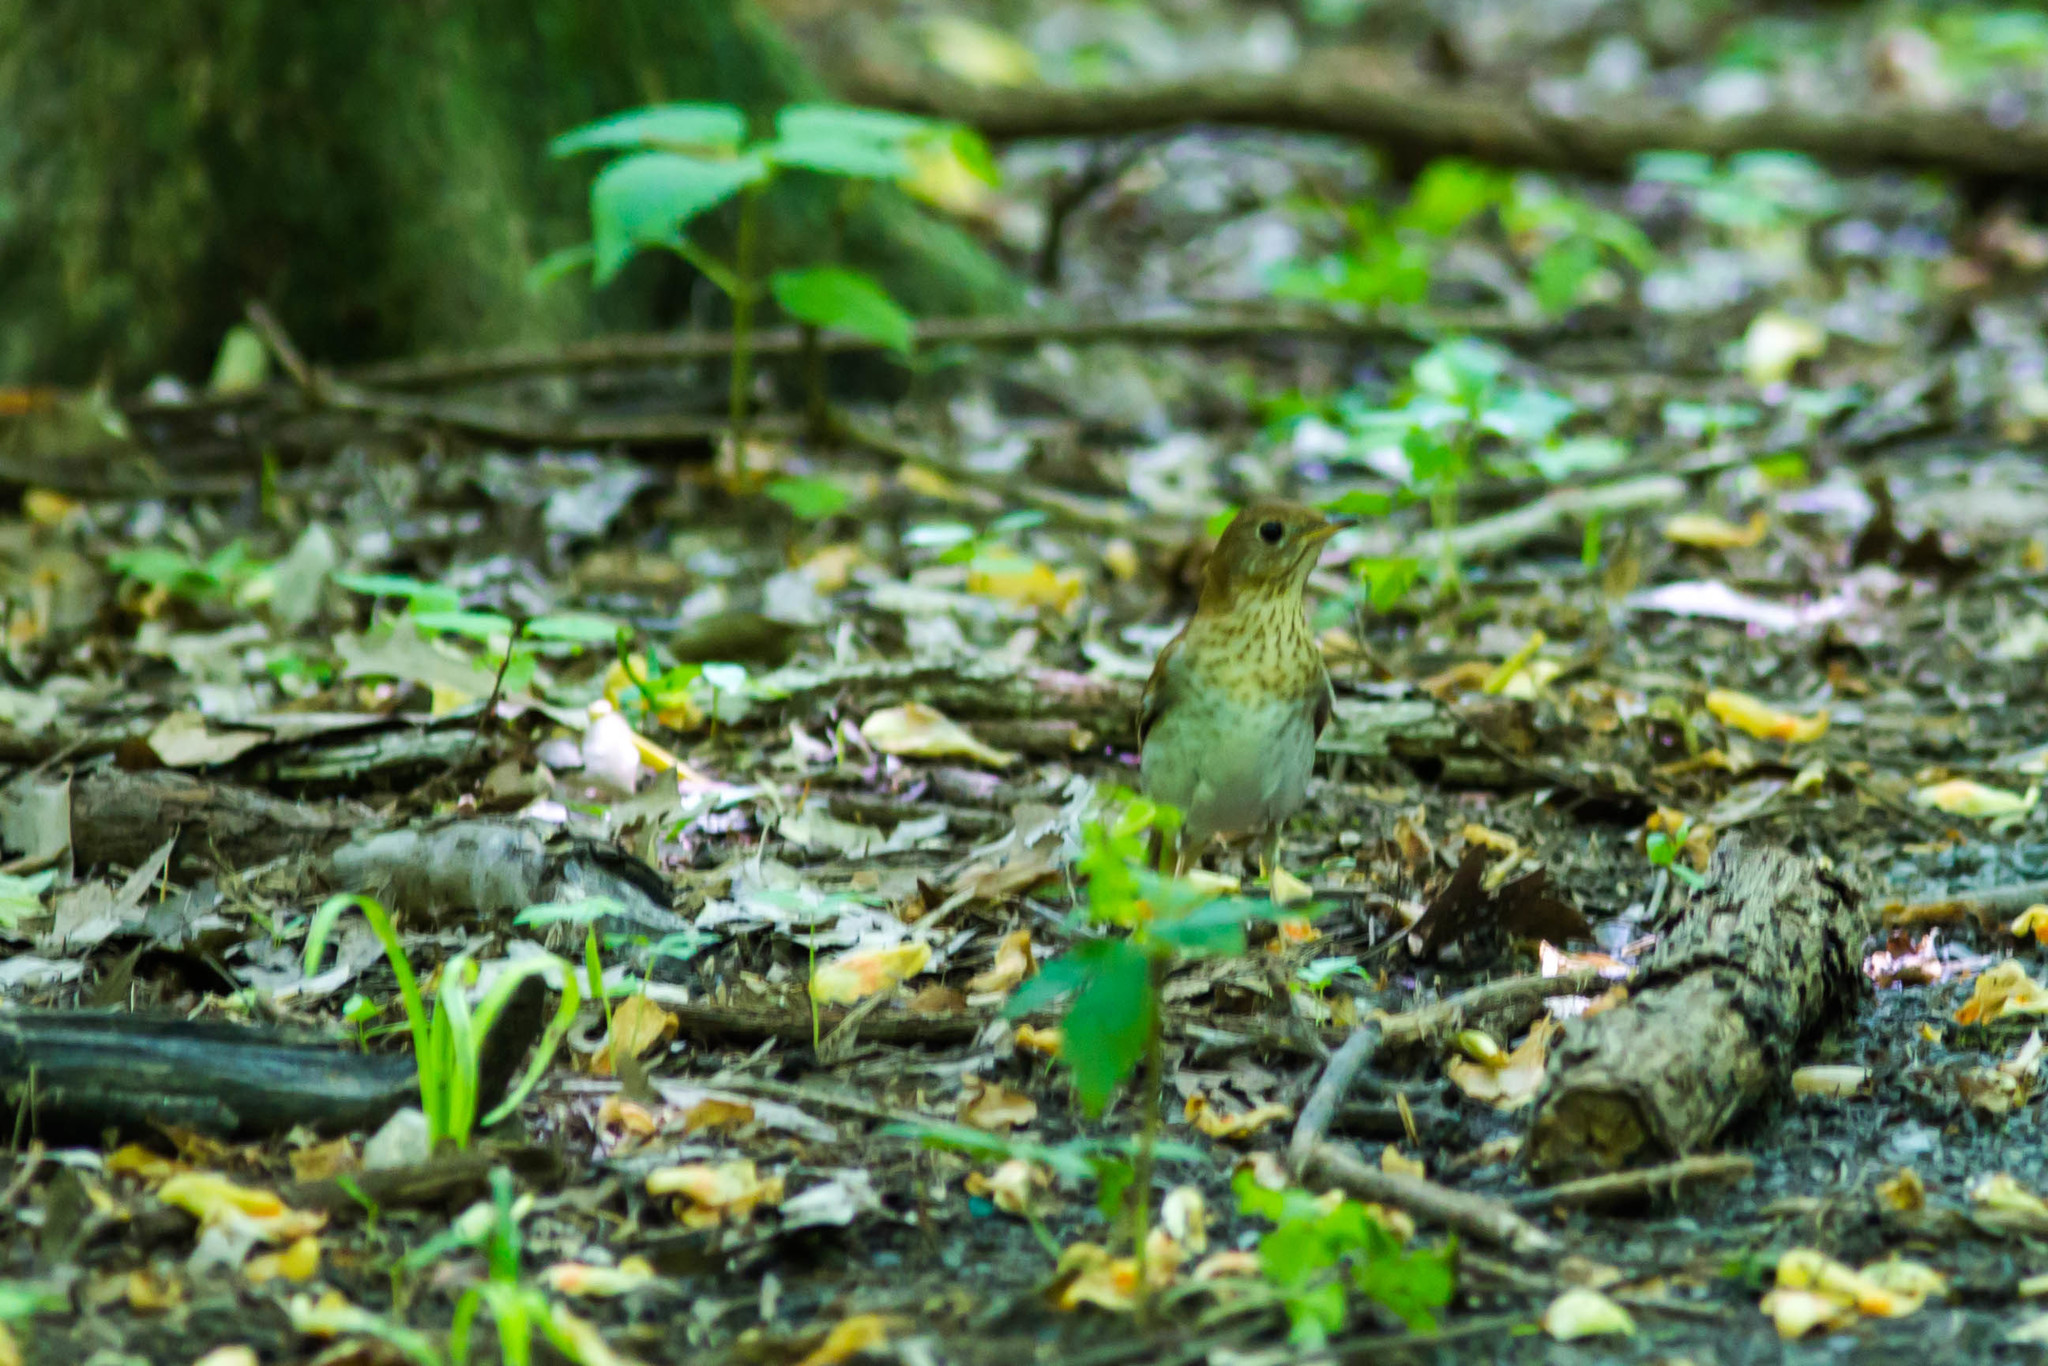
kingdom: Animalia
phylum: Chordata
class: Aves
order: Passeriformes
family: Turdidae
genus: Catharus
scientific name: Catharus fuscescens
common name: Veery
